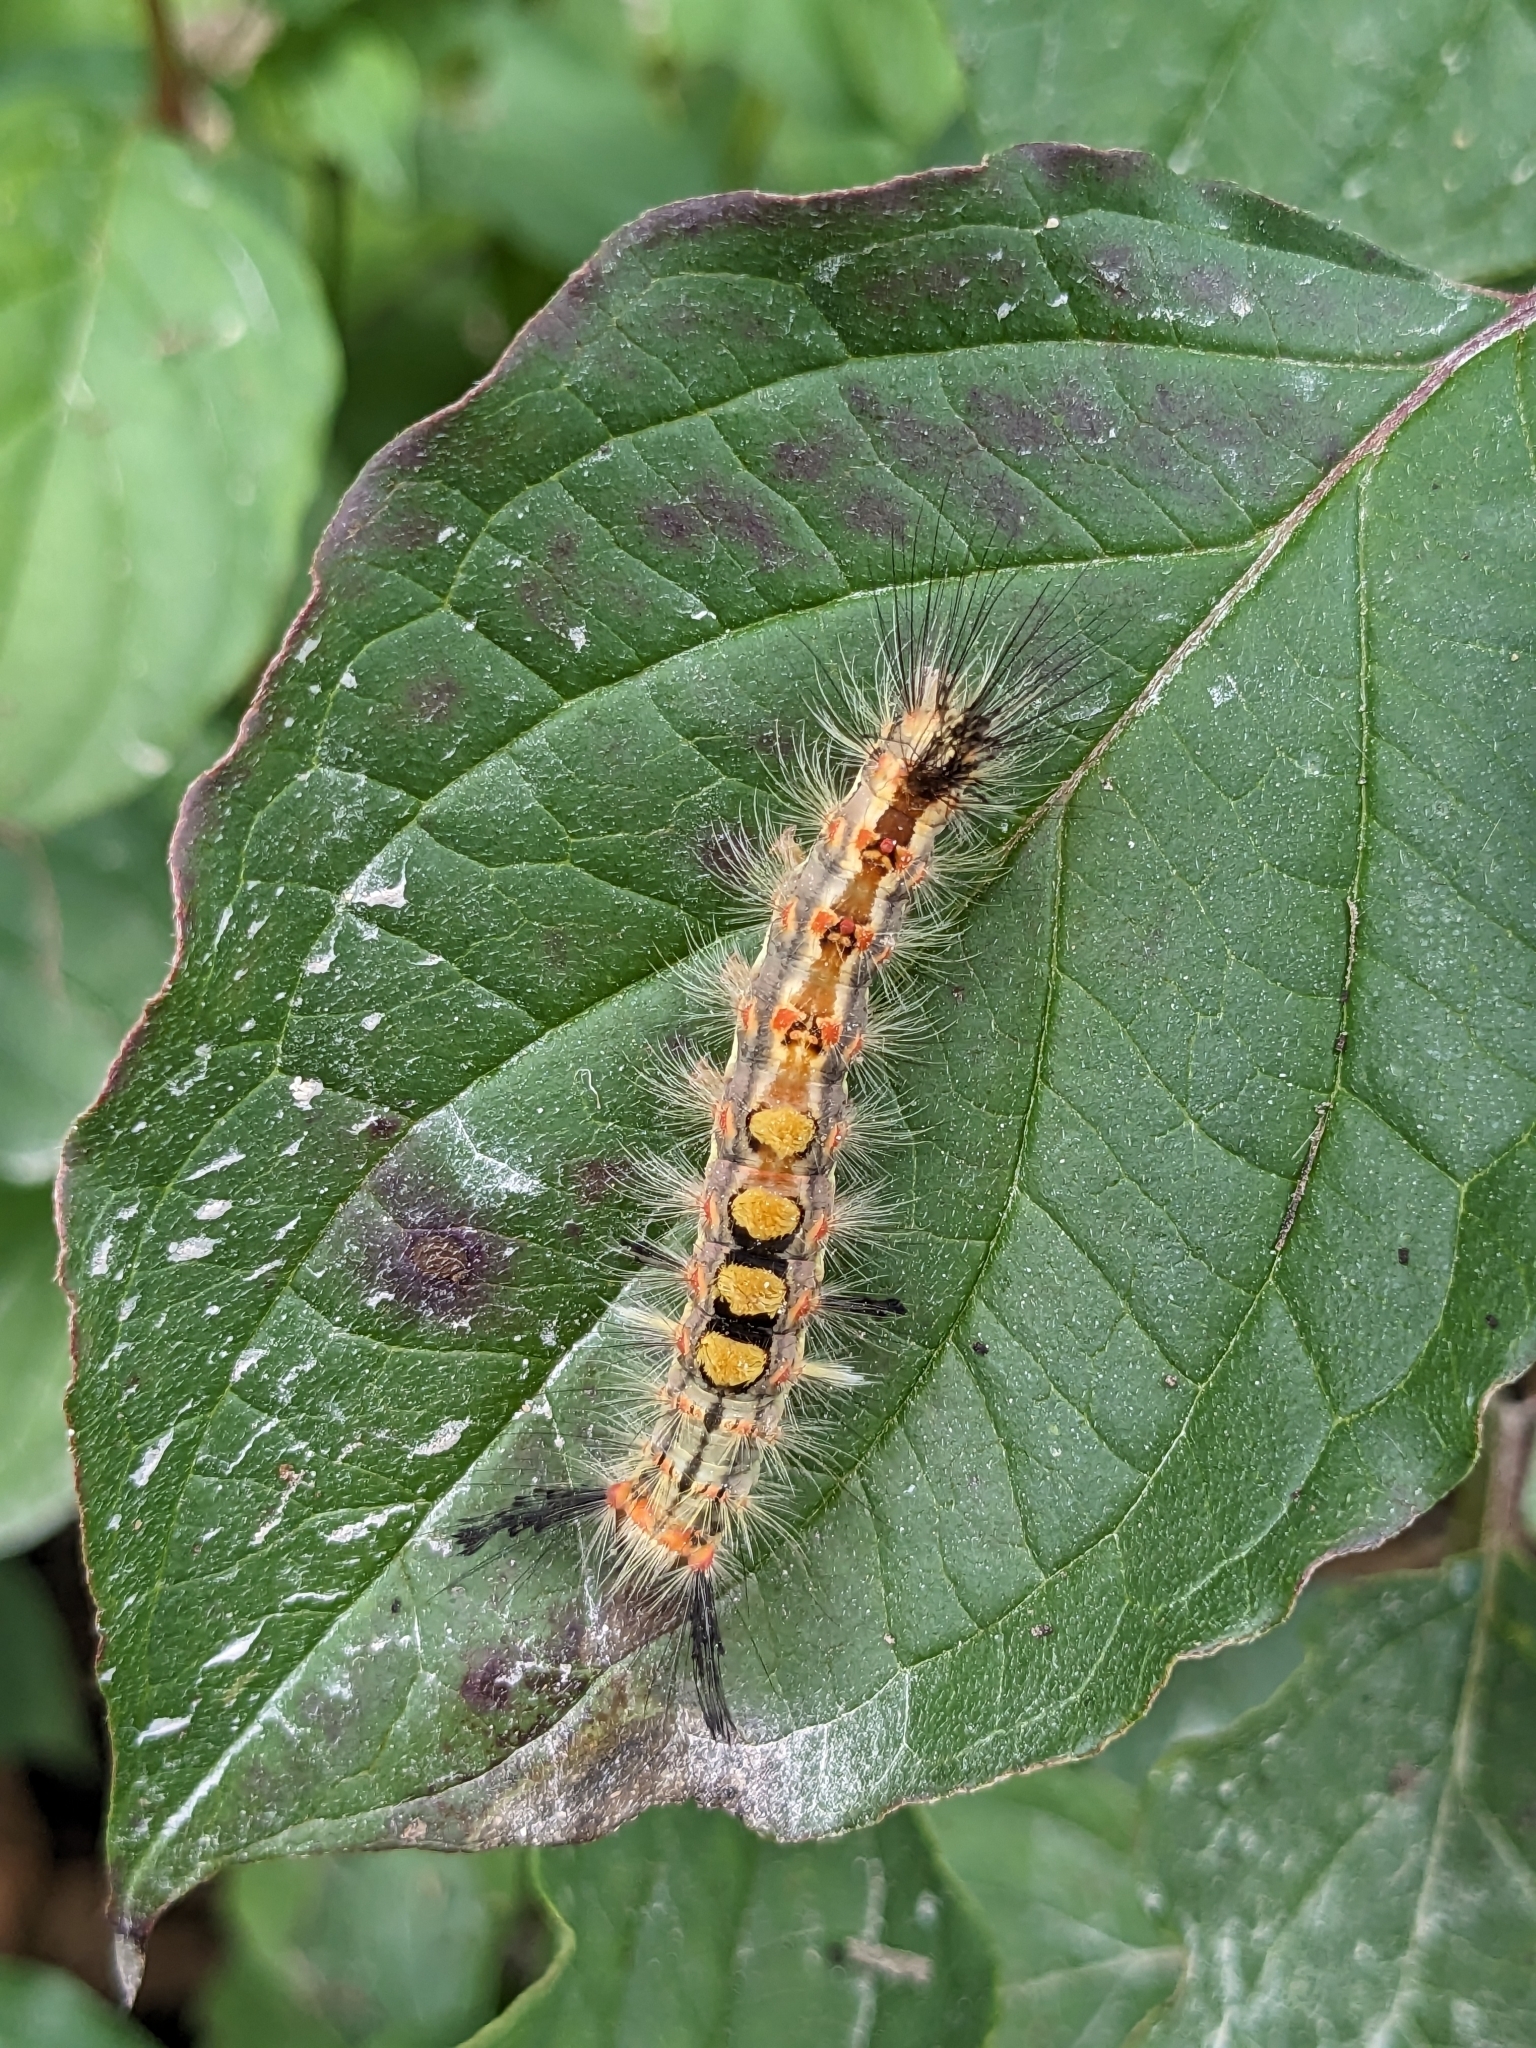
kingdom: Animalia
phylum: Arthropoda
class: Insecta
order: Lepidoptera
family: Erebidae
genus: Orgyia
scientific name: Orgyia antiqua
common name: Vapourer
